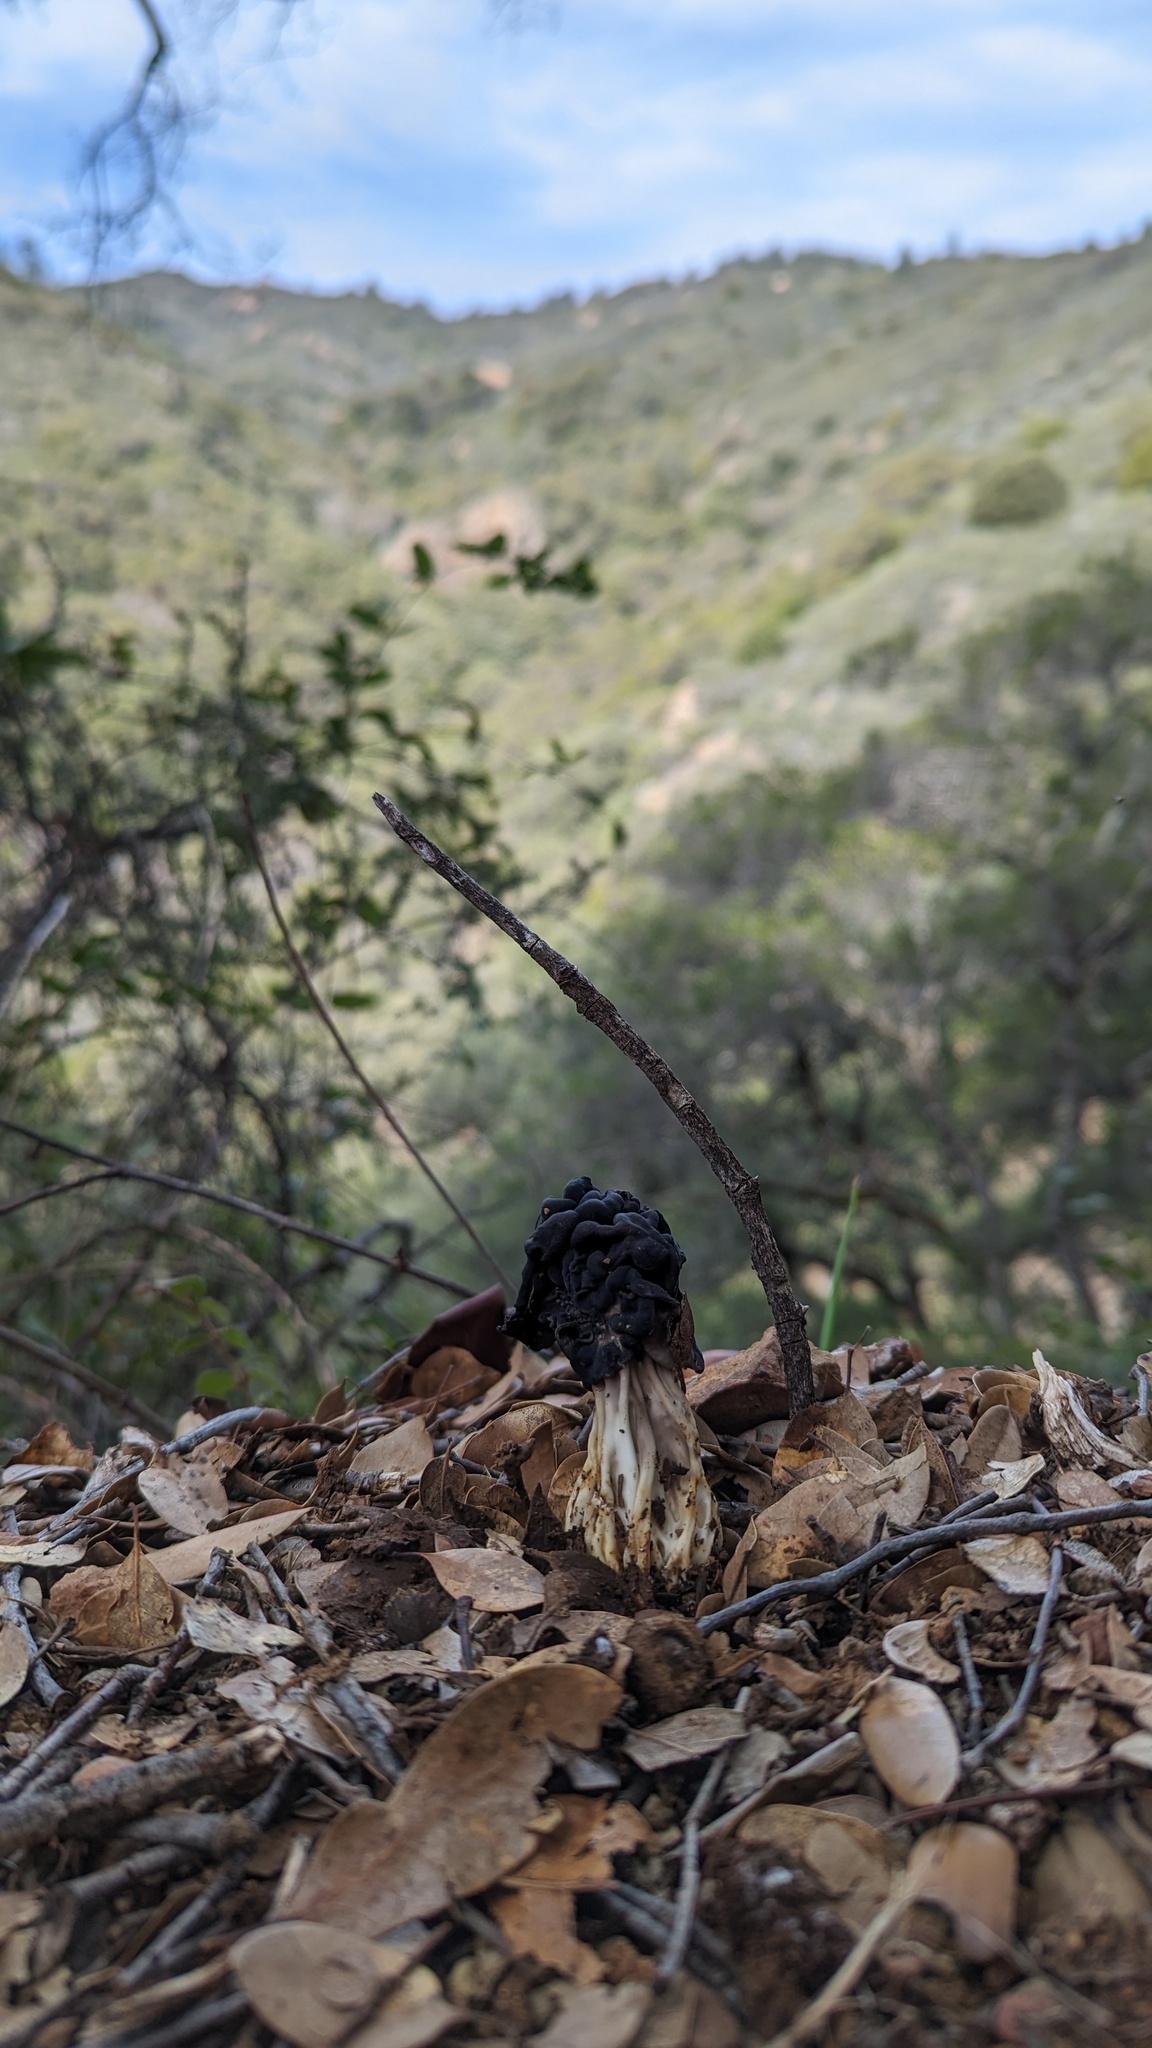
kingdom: Fungi
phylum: Ascomycota
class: Pezizomycetes
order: Pezizales
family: Helvellaceae
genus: Helvella
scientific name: Helvella dryophila
